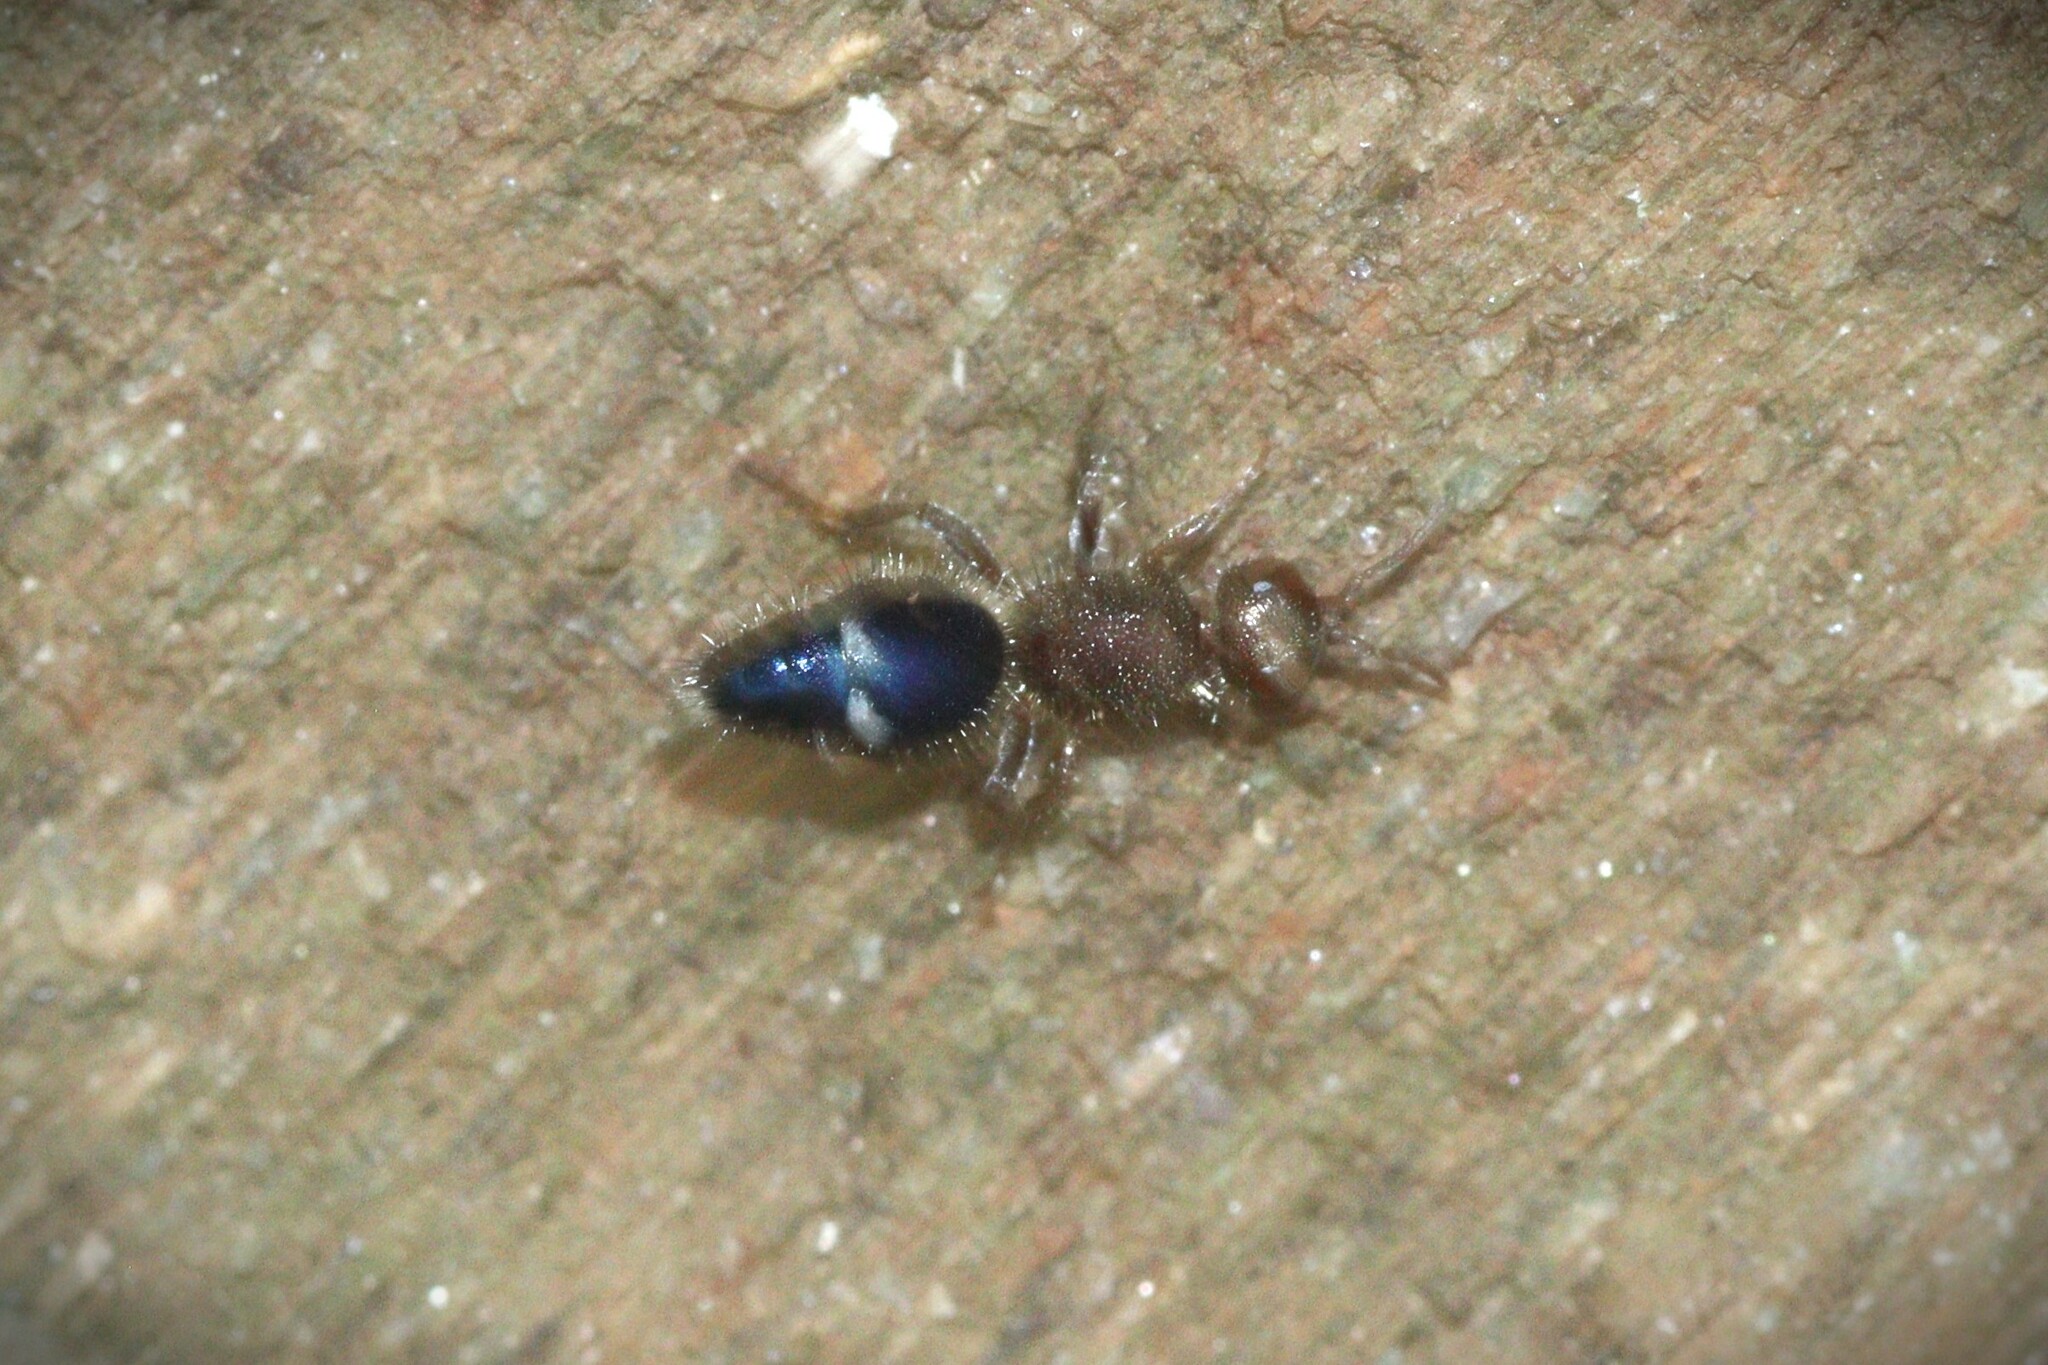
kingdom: Animalia
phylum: Arthropoda
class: Insecta
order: Hymenoptera
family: Mutillidae
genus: Promecilla
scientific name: Promecilla
